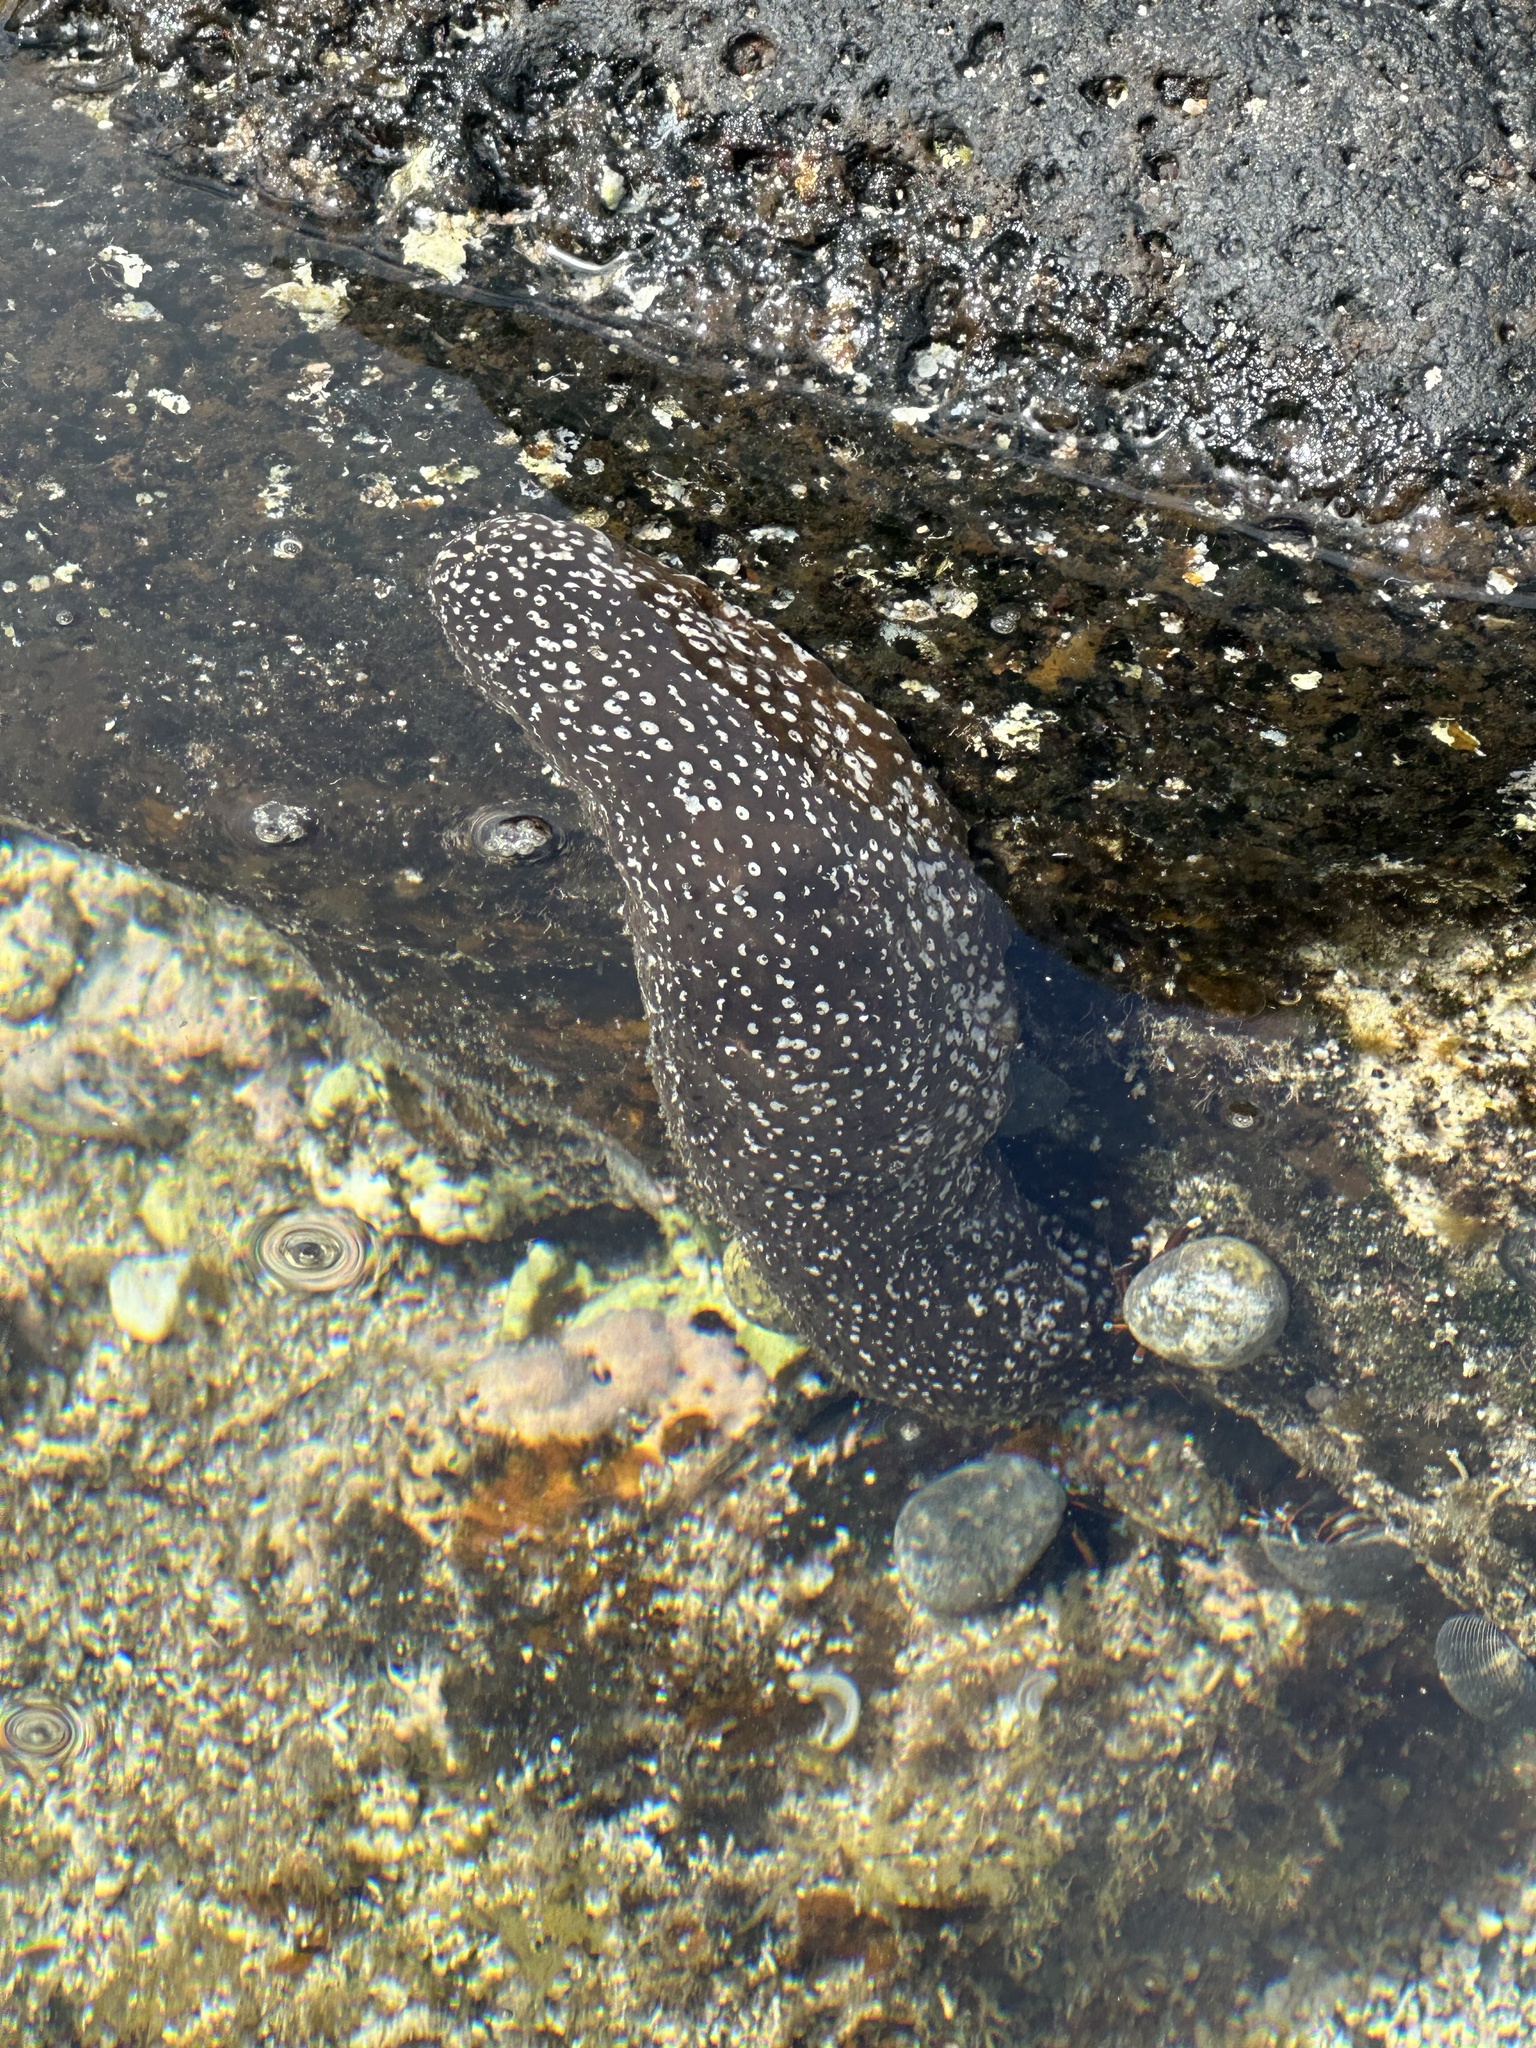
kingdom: Animalia
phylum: Echinodermata
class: Holothuroidea
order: Holothuriida
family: Holothuriidae
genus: Actinopyga
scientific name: Actinopyga varians
